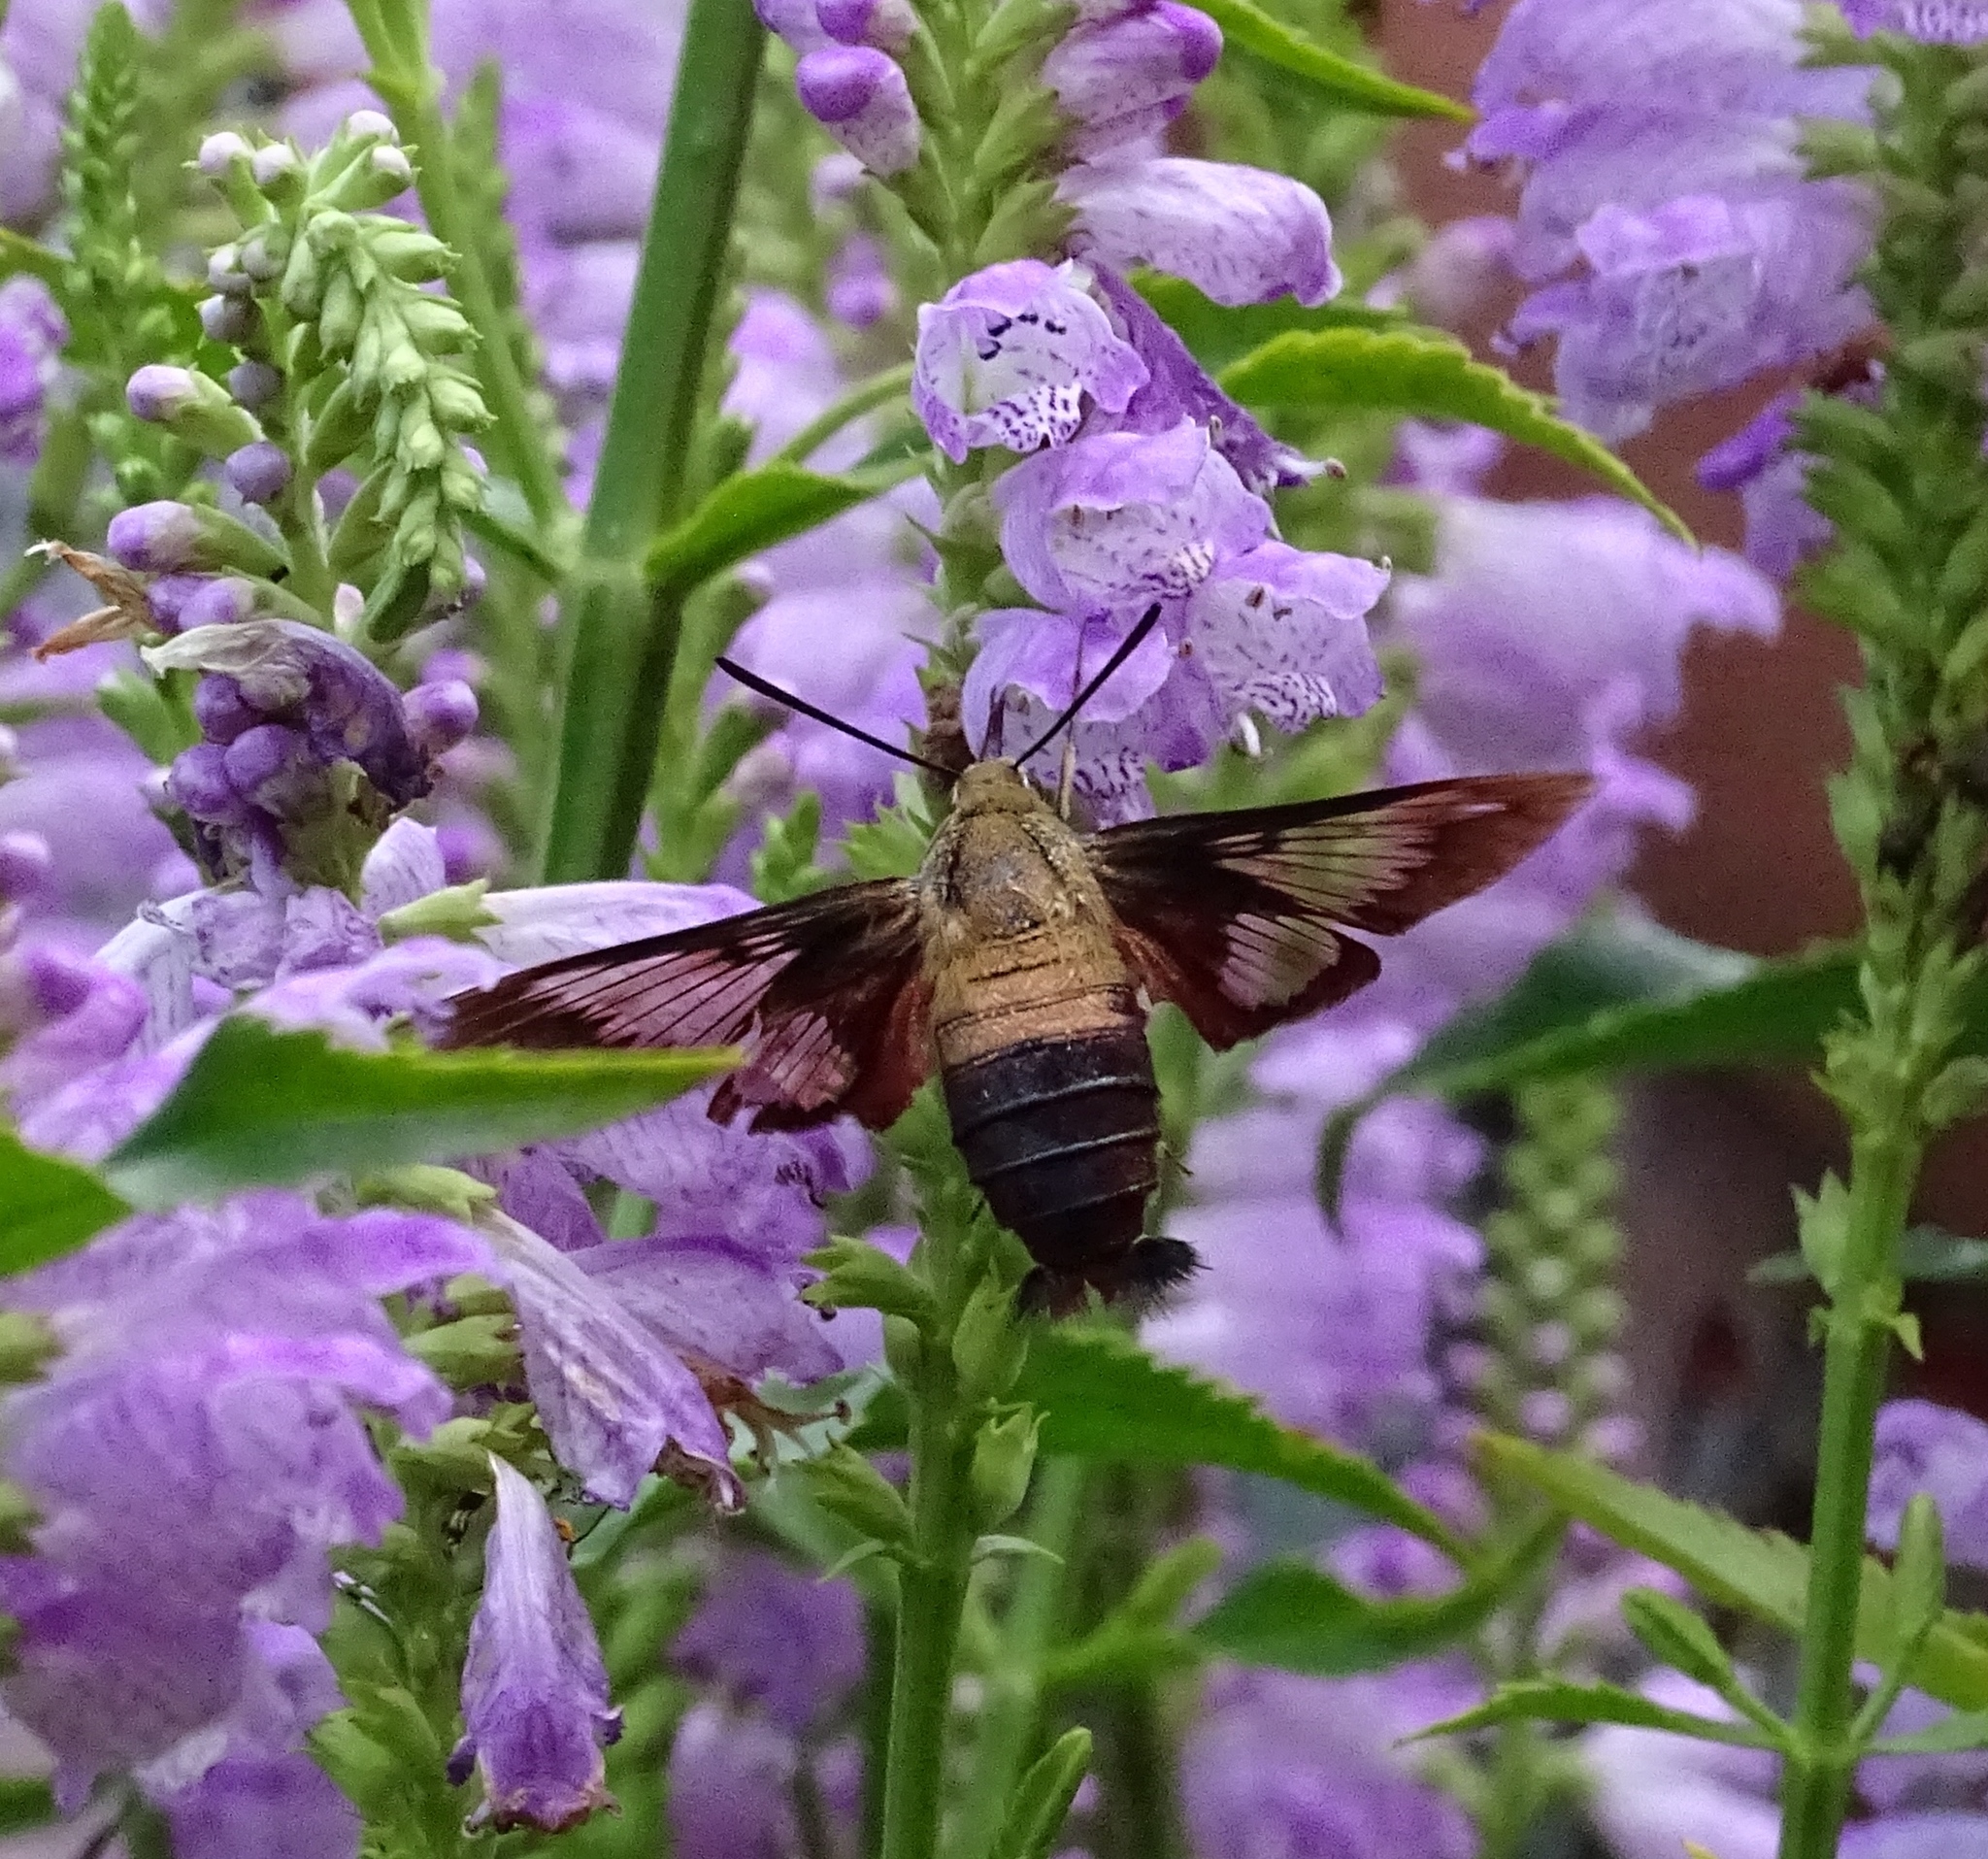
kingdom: Animalia
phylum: Arthropoda
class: Insecta
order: Lepidoptera
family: Sphingidae
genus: Hemaris
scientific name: Hemaris thysbe
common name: Common clear-wing
